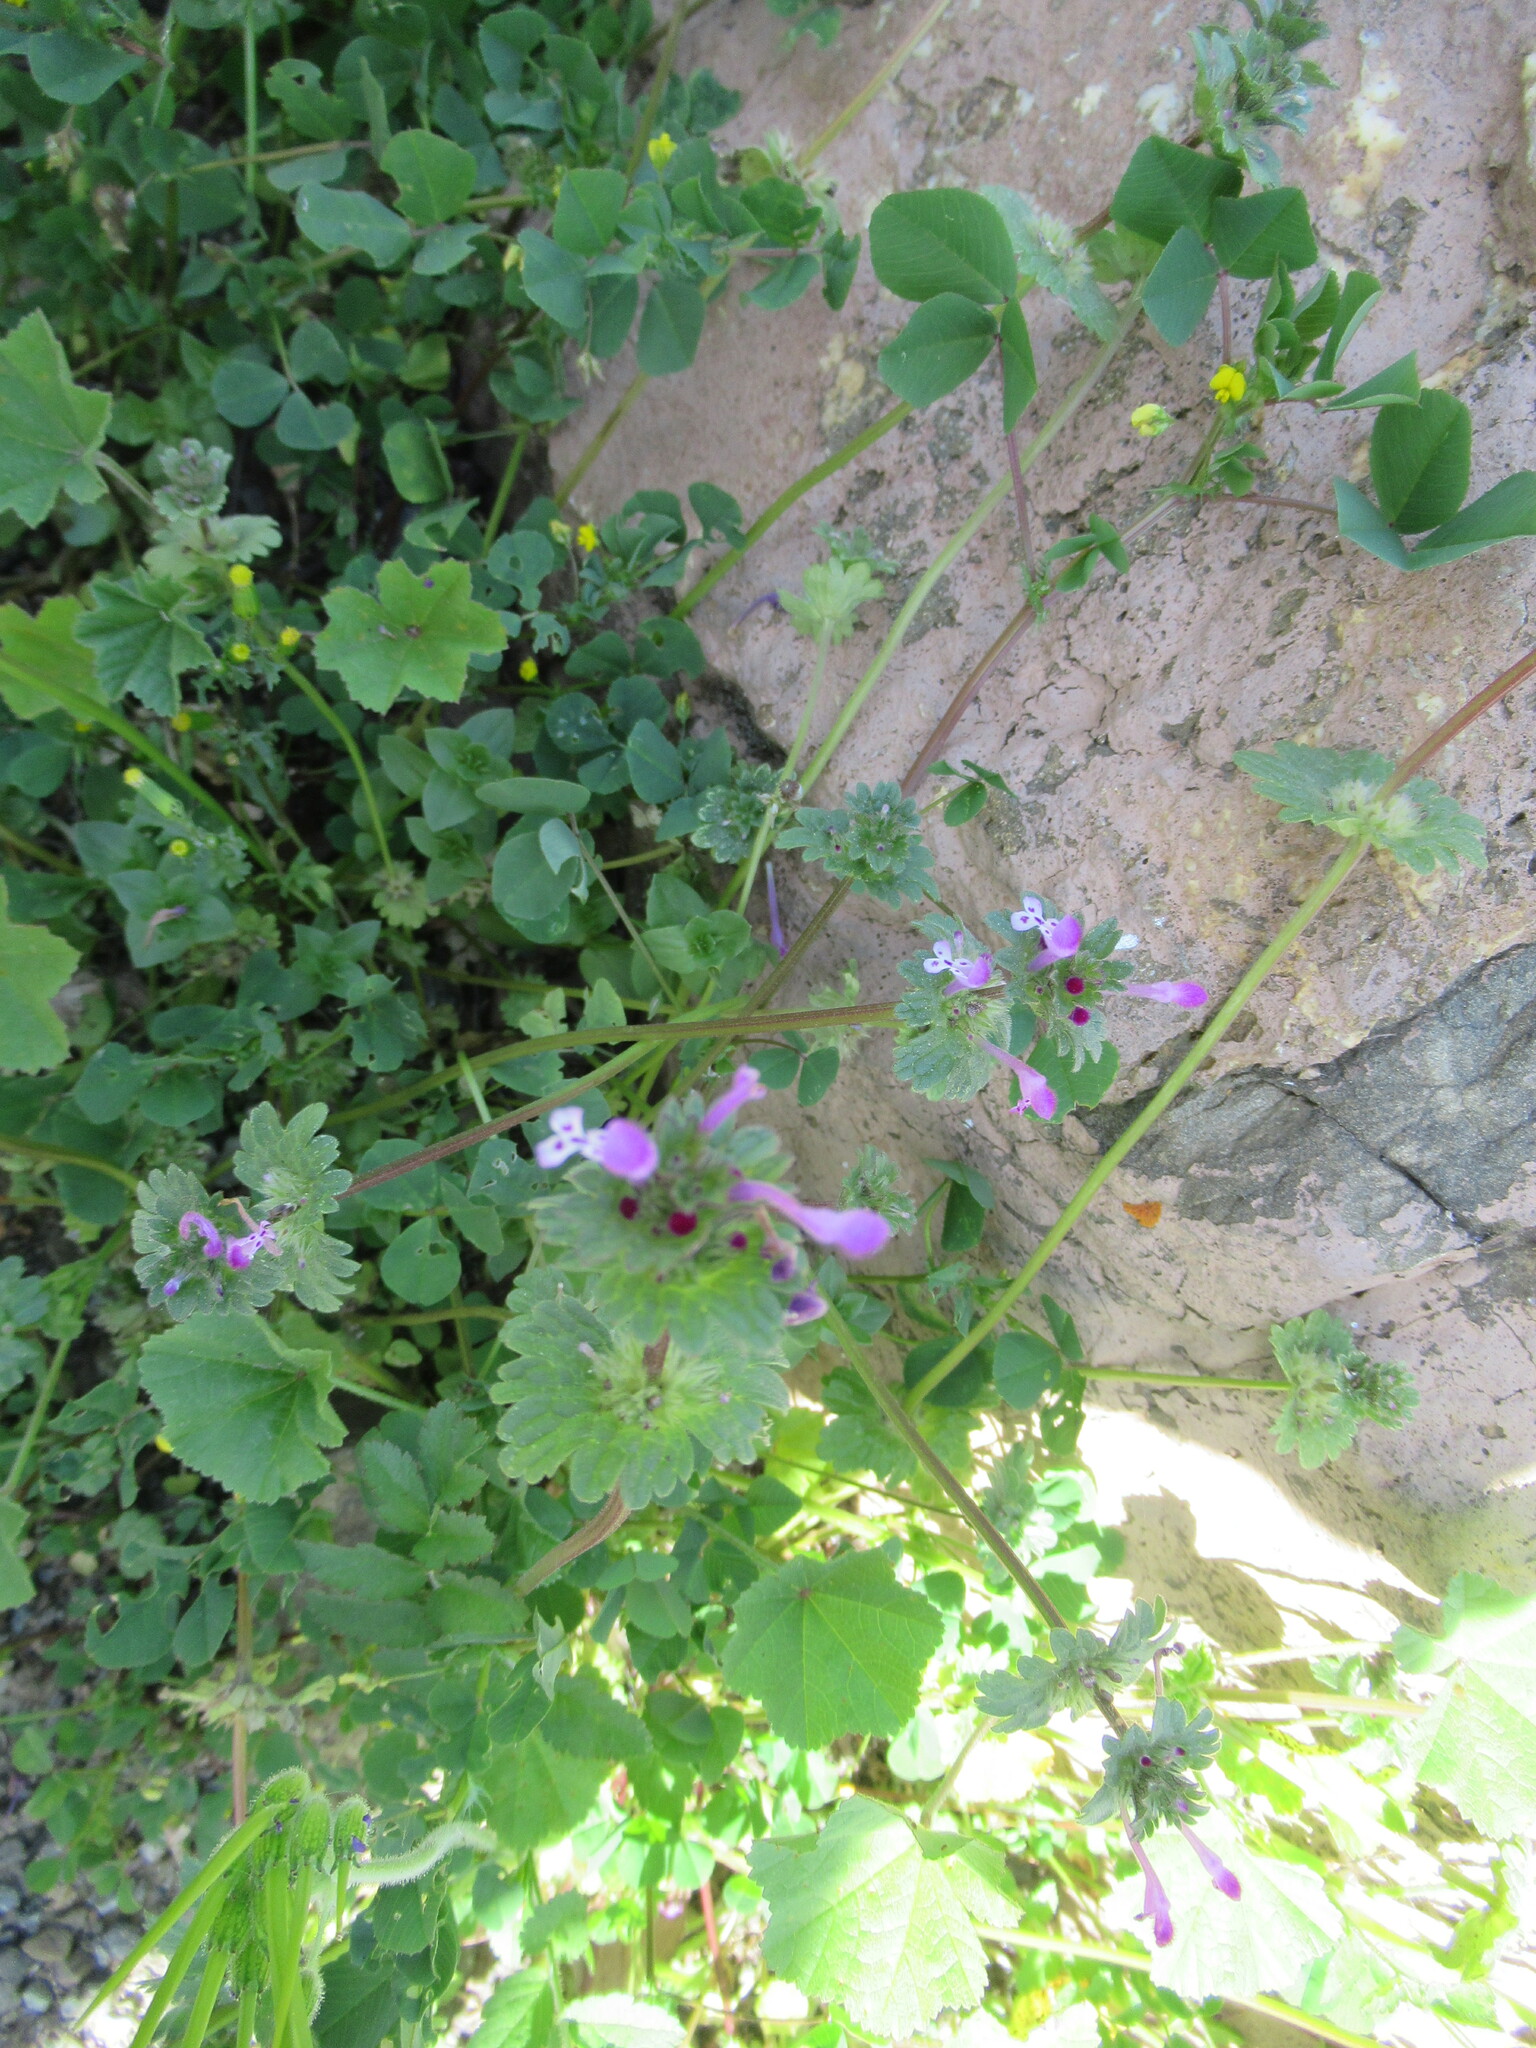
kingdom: Plantae
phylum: Tracheophyta
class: Magnoliopsida
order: Lamiales
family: Lamiaceae
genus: Lamium
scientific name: Lamium amplexicaule
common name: Henbit dead-nettle
